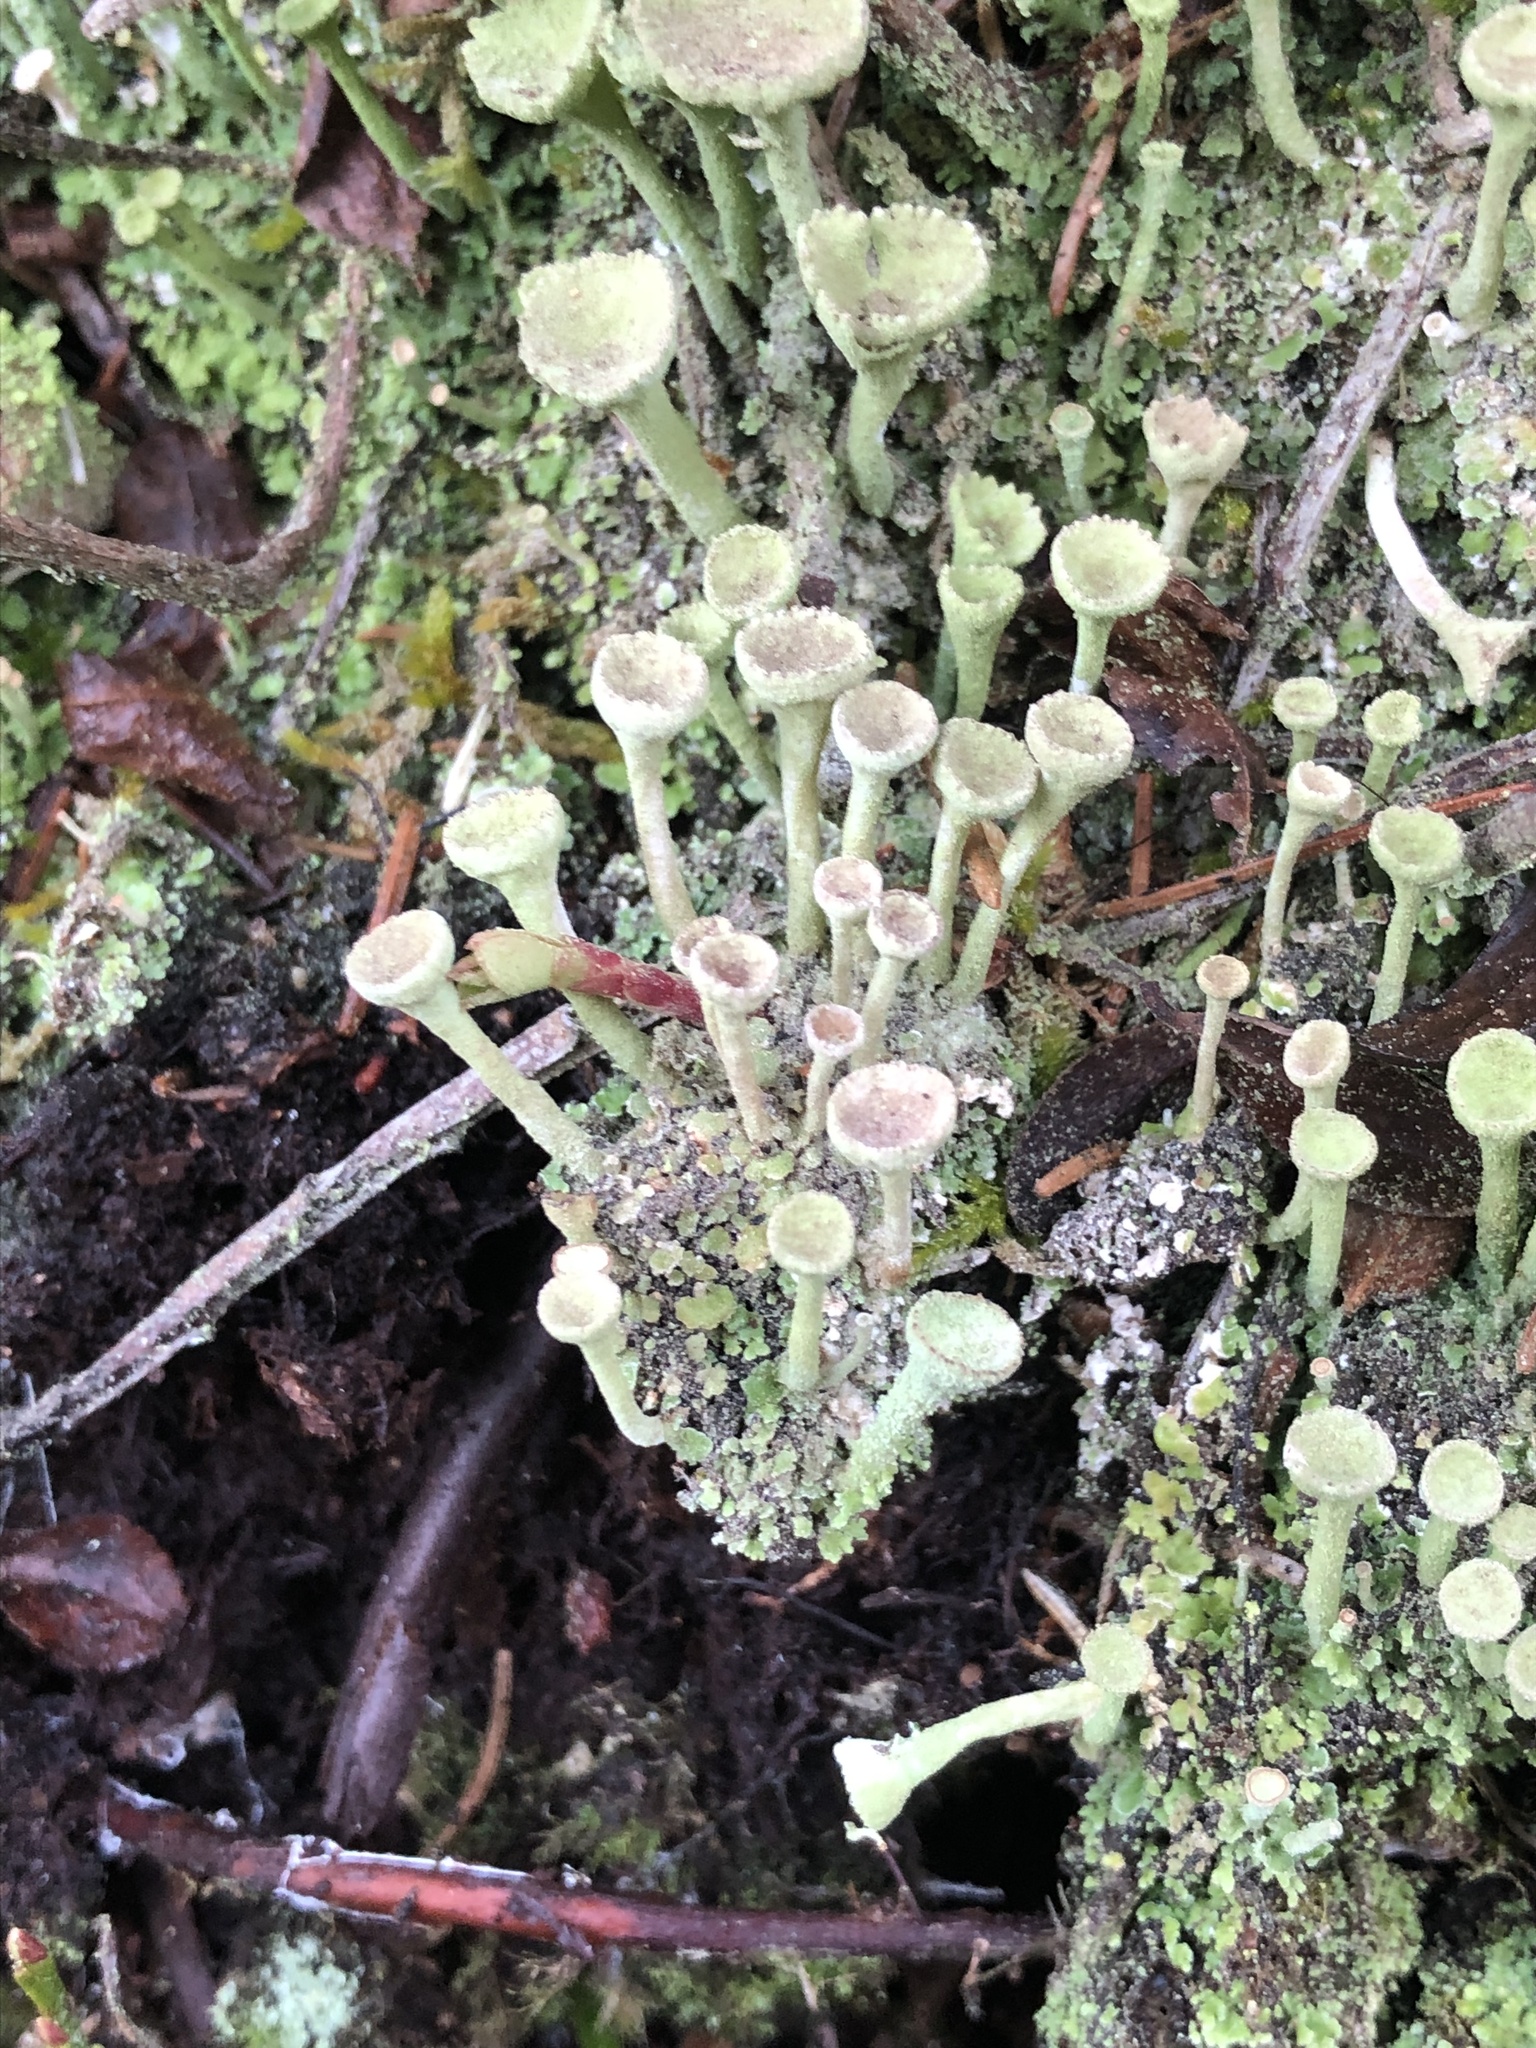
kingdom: Fungi
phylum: Ascomycota
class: Lecanoromycetes
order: Lecanorales
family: Cladoniaceae
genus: Cladonia
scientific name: Cladonia fimbriata
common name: Powdered trumpet lichen
